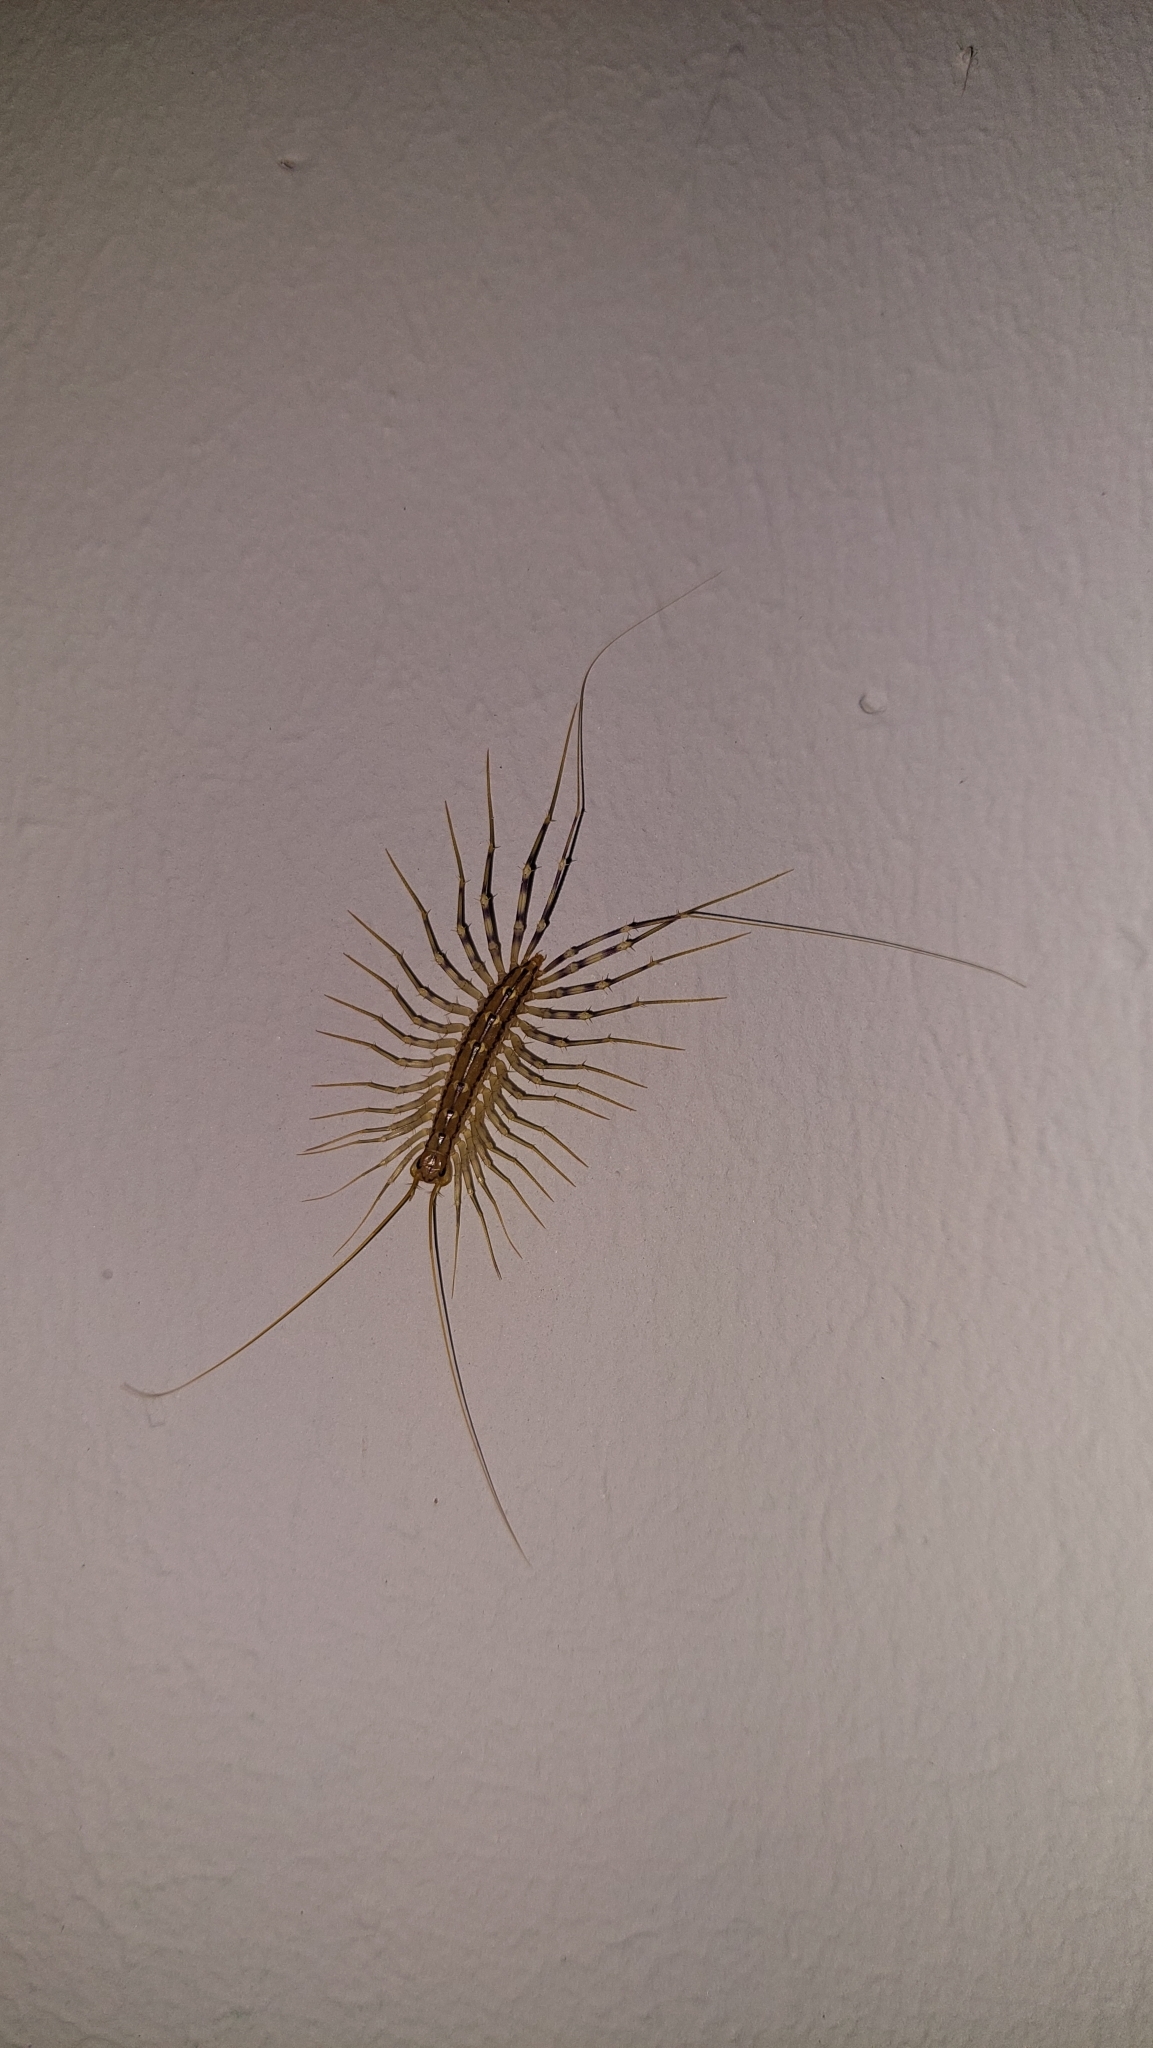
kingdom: Animalia
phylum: Arthropoda
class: Chilopoda
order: Scutigeromorpha
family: Scutigeridae
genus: Scutigera
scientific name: Scutigera coleoptrata
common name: House centipede
